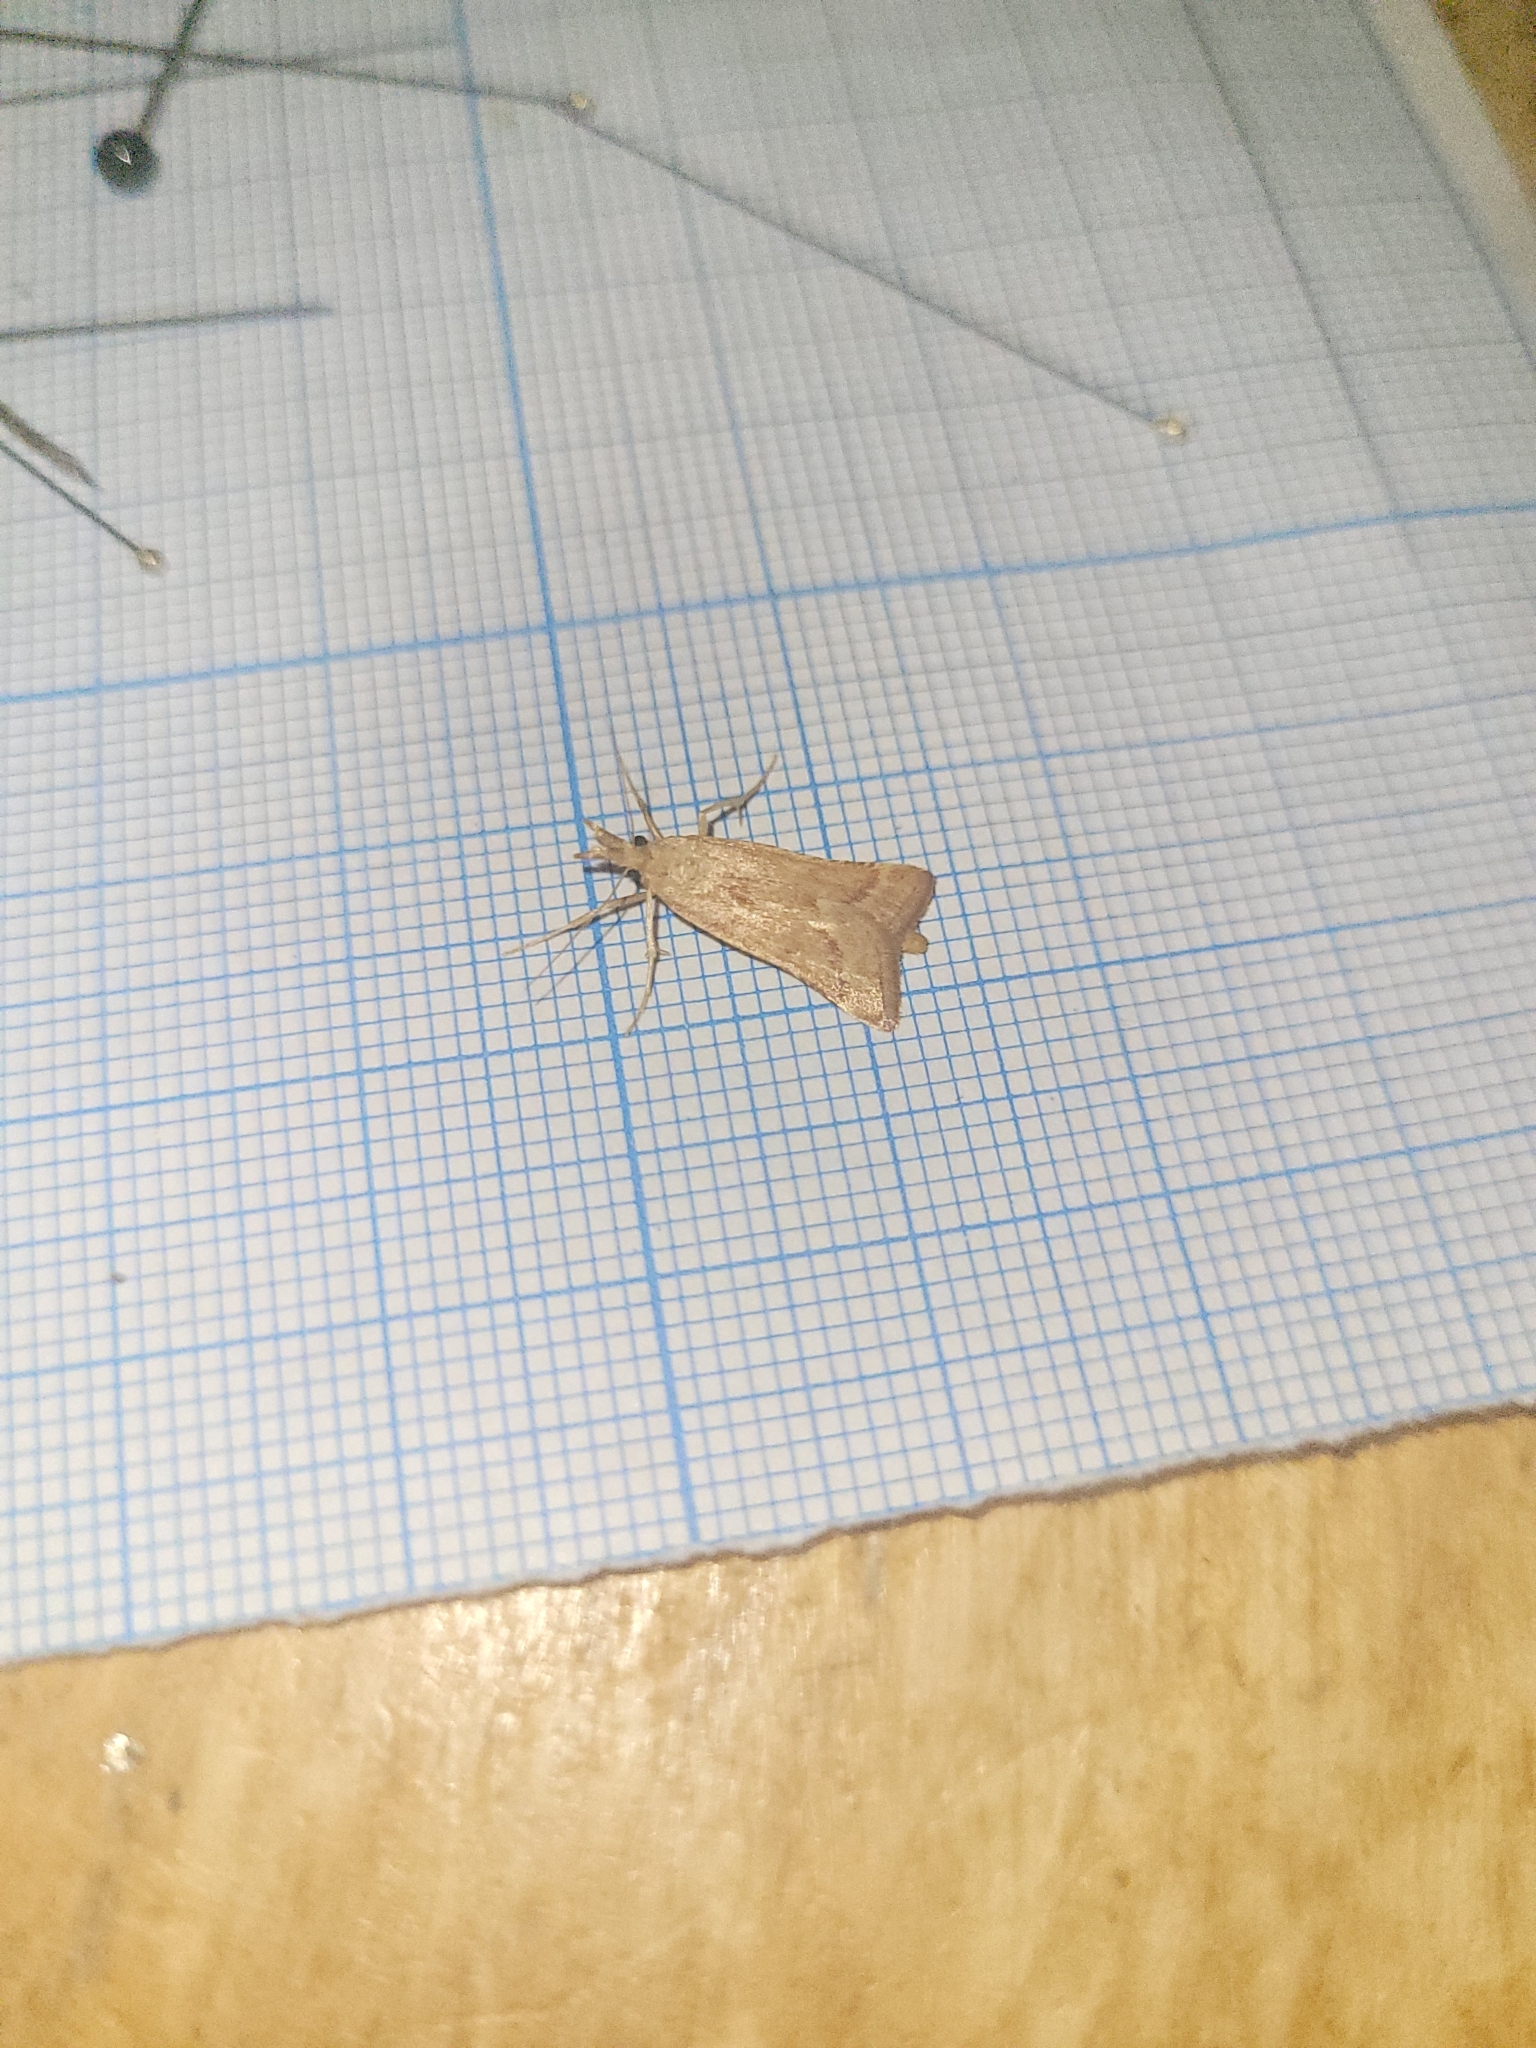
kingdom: Animalia
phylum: Arthropoda
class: Insecta
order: Lepidoptera
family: Pyralidae
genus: Synaphe
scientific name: Synaphe punctalis
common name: Long-legged tabby
